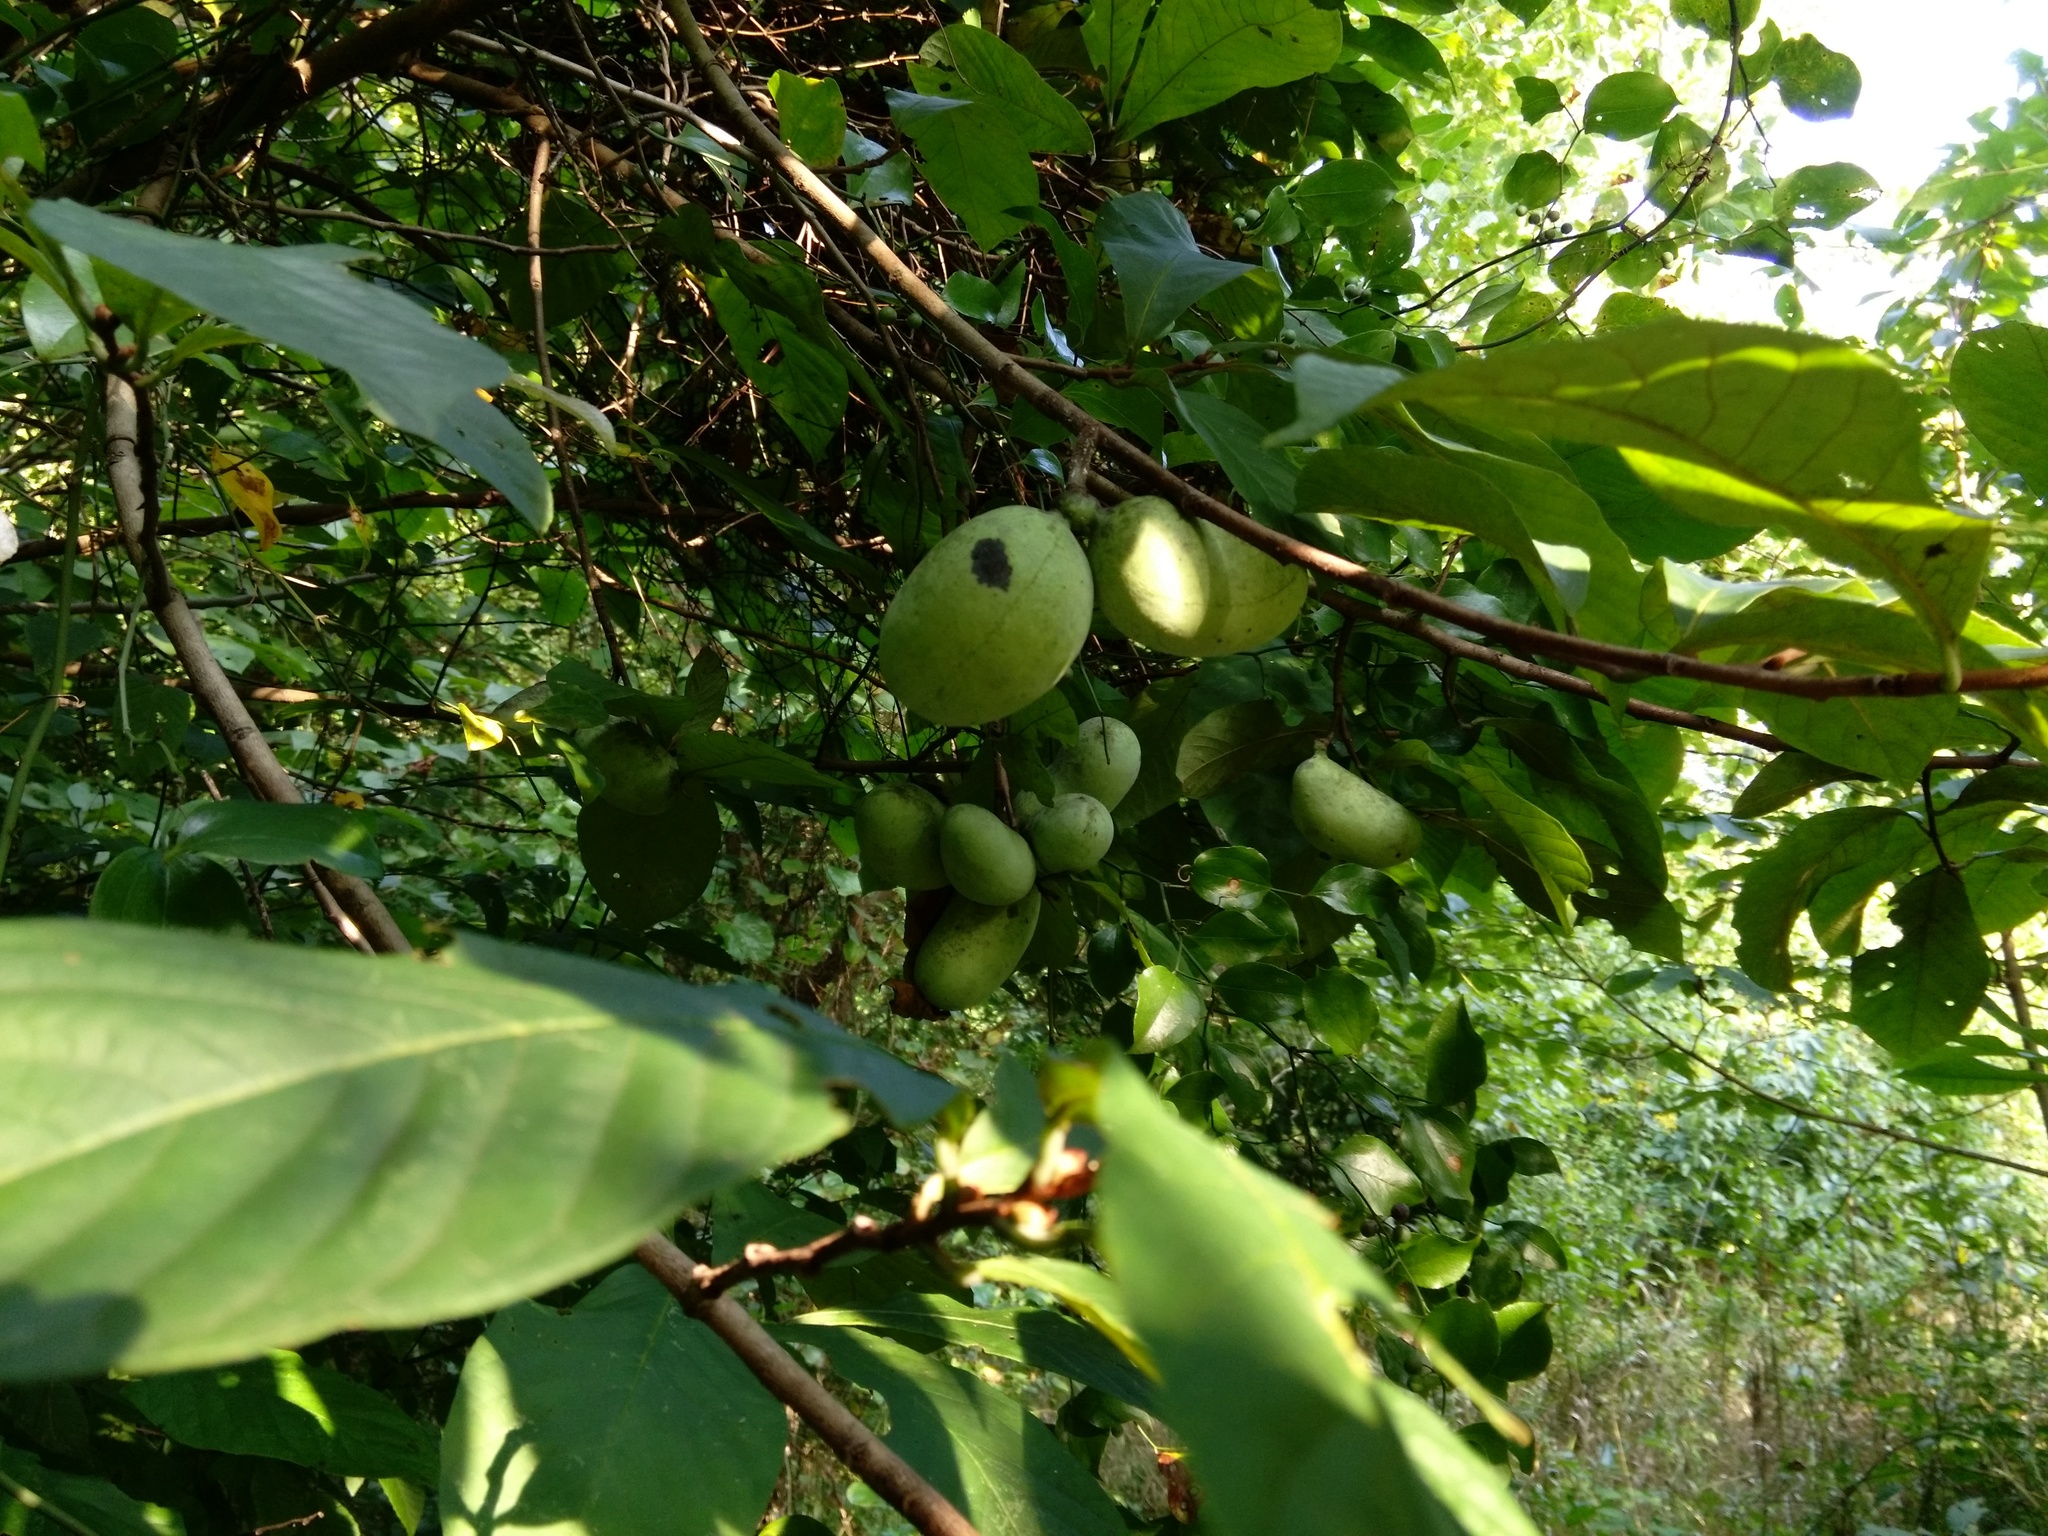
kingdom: Plantae
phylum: Tracheophyta
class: Magnoliopsida
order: Magnoliales
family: Annonaceae
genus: Asimina
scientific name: Asimina triloba
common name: Dog-banana
